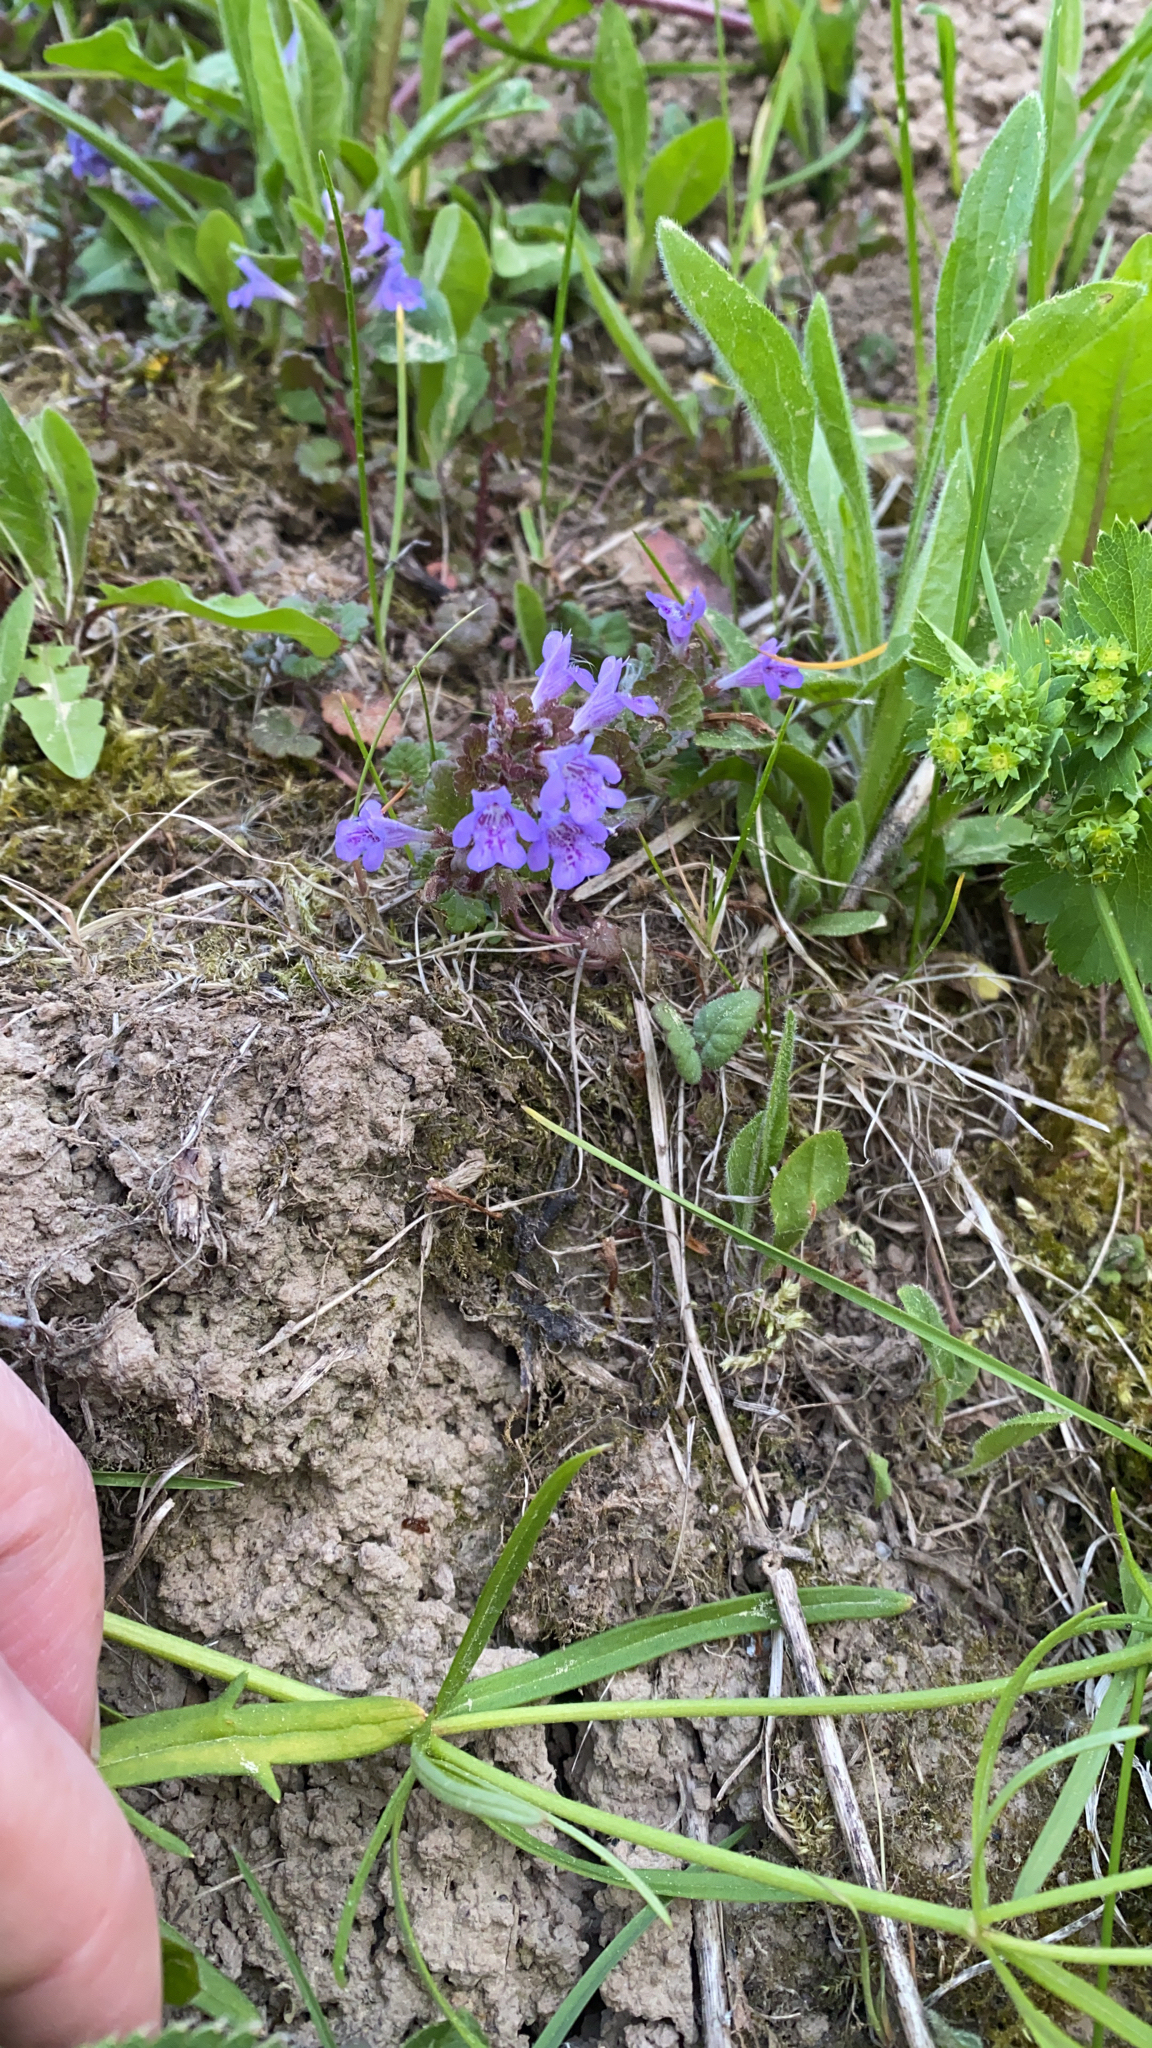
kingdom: Plantae
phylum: Tracheophyta
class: Magnoliopsida
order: Lamiales
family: Lamiaceae
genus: Glechoma
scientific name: Glechoma hederacea
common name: Ground ivy
